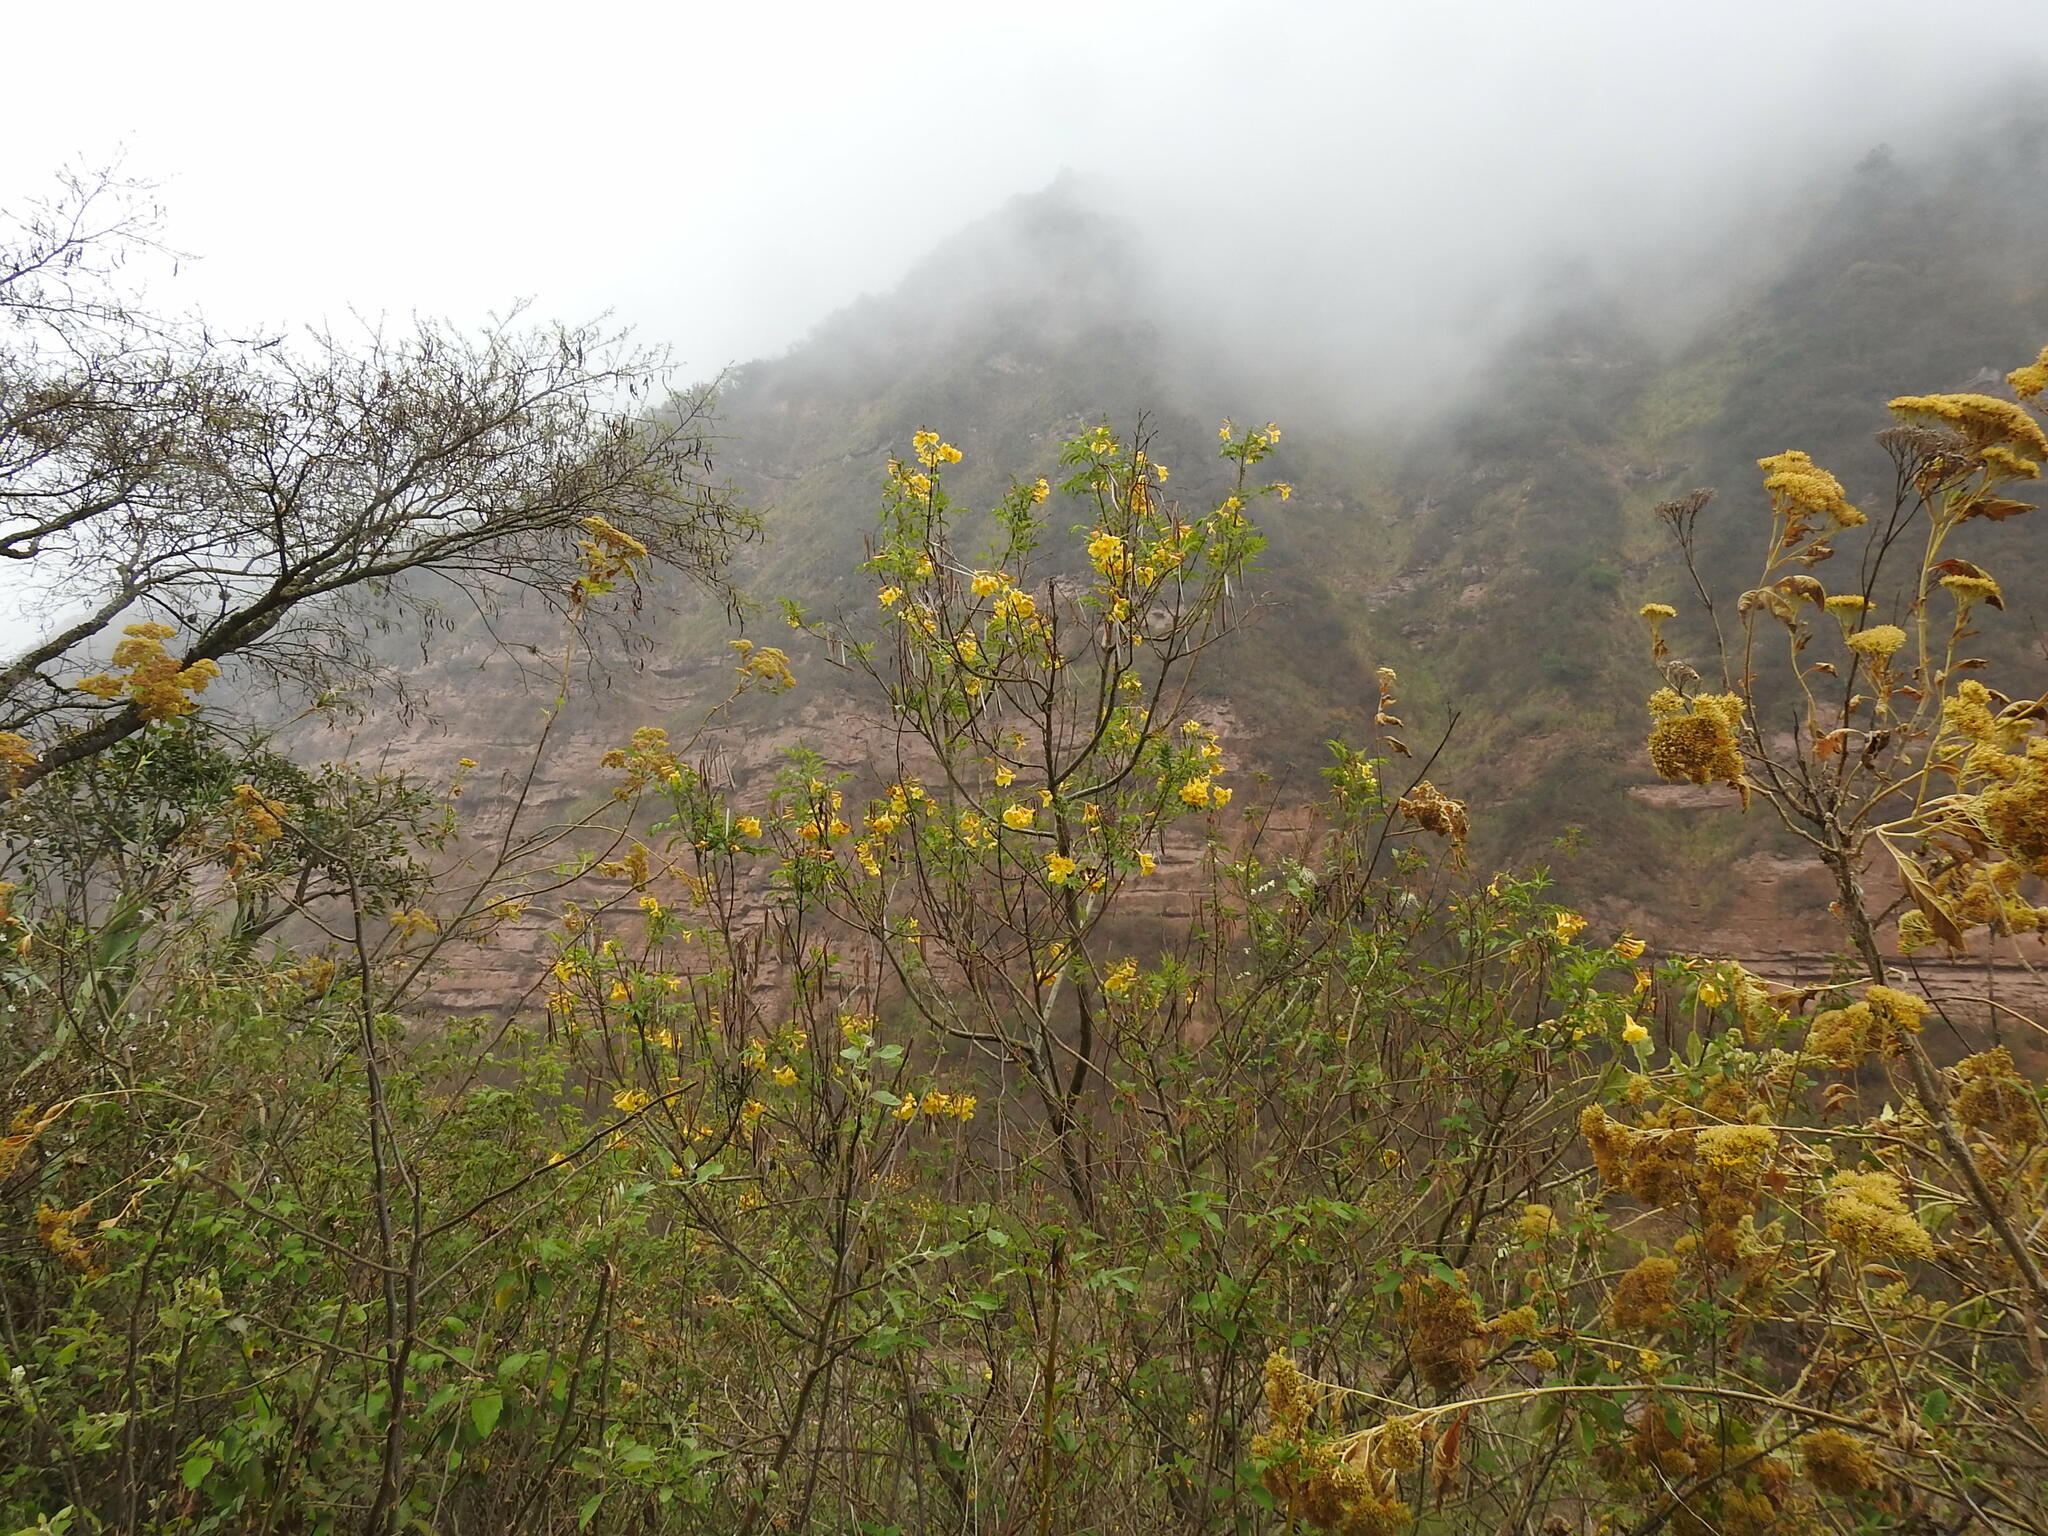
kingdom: Plantae
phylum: Tracheophyta
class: Magnoliopsida
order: Lamiales
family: Bignoniaceae
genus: Tecoma
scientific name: Tecoma stans
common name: Yellow trumpetbush
